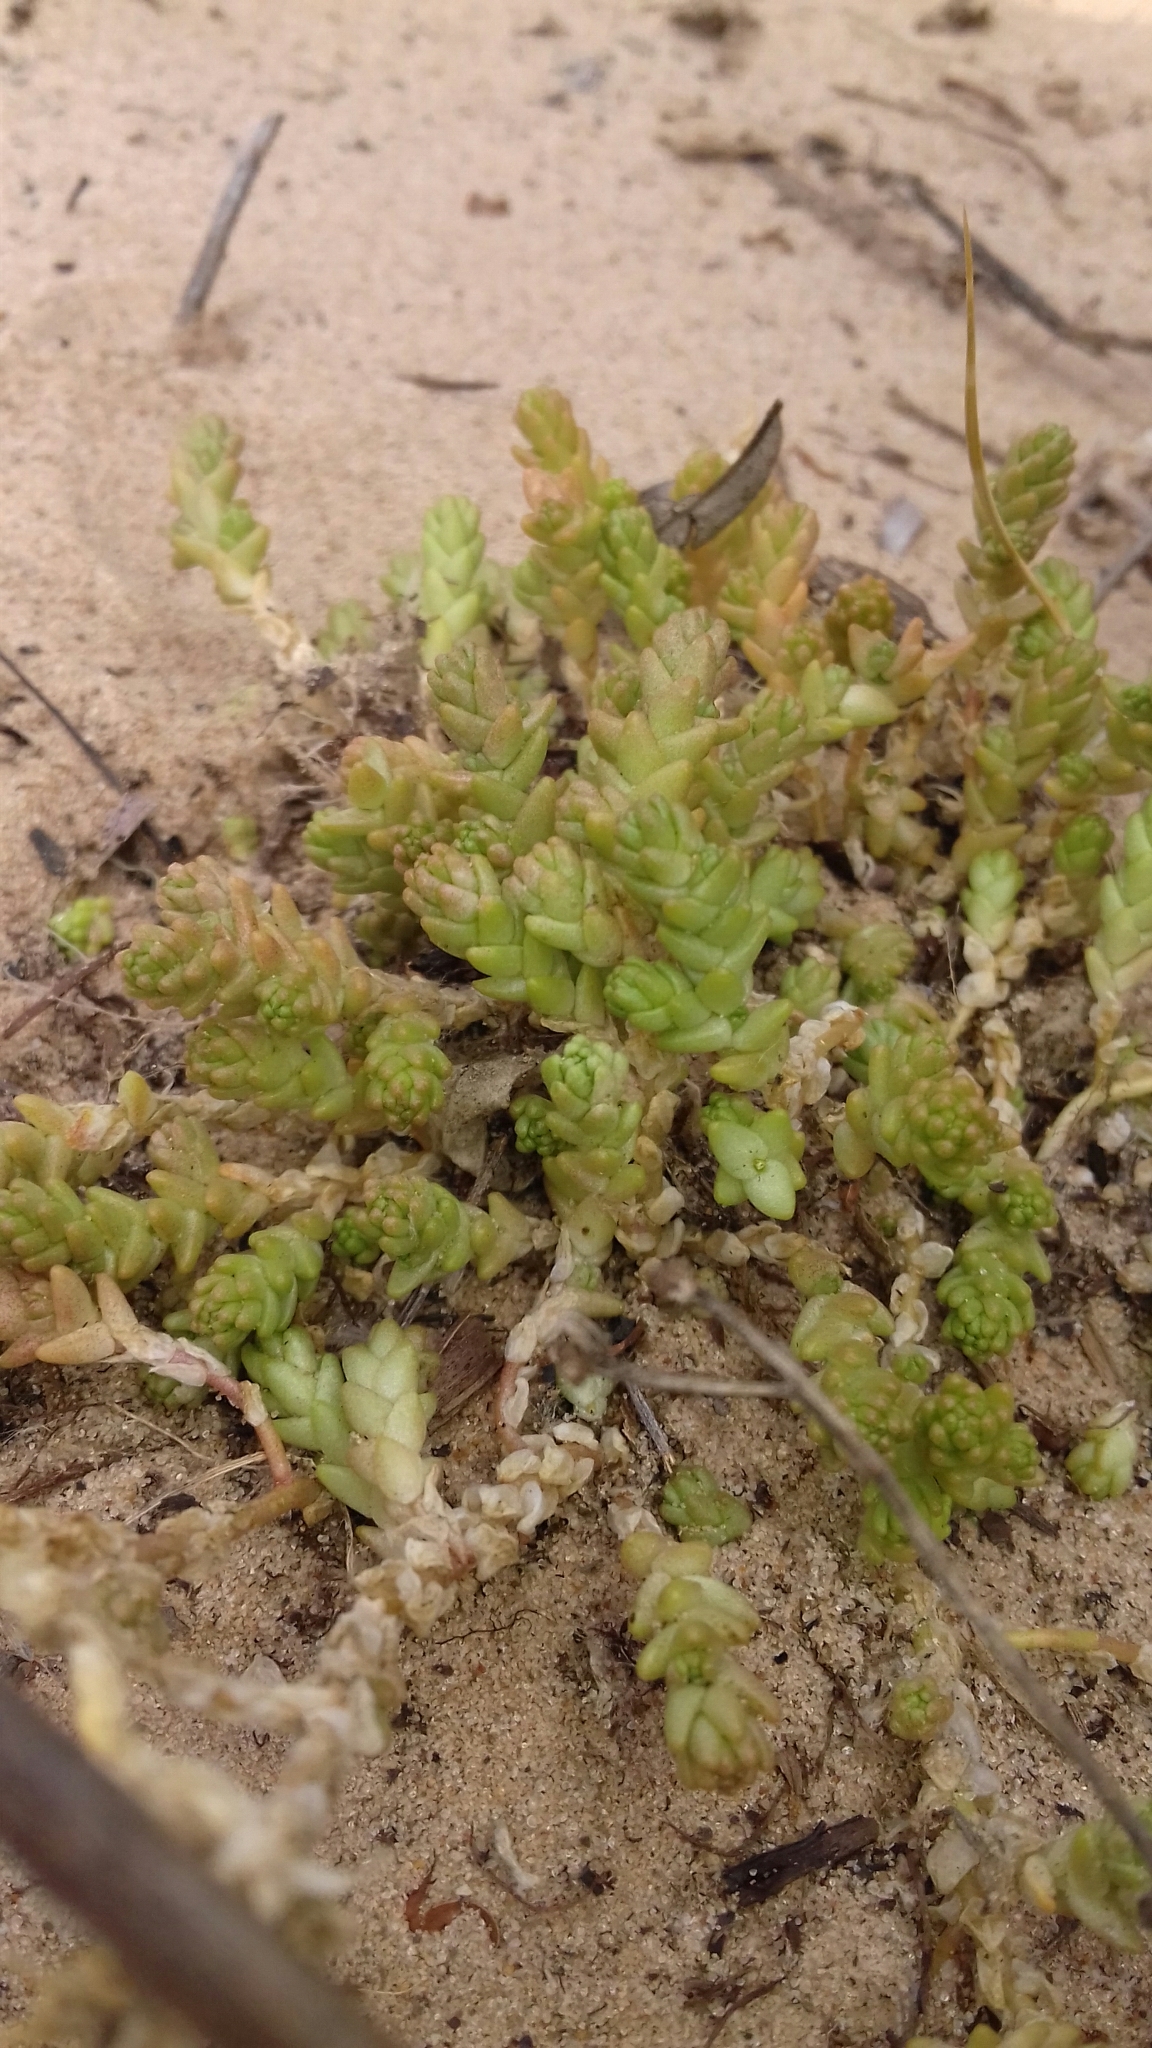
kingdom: Plantae
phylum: Tracheophyta
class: Magnoliopsida
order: Saxifragales
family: Crassulaceae
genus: Sedum
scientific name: Sedum acre
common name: Biting stonecrop
